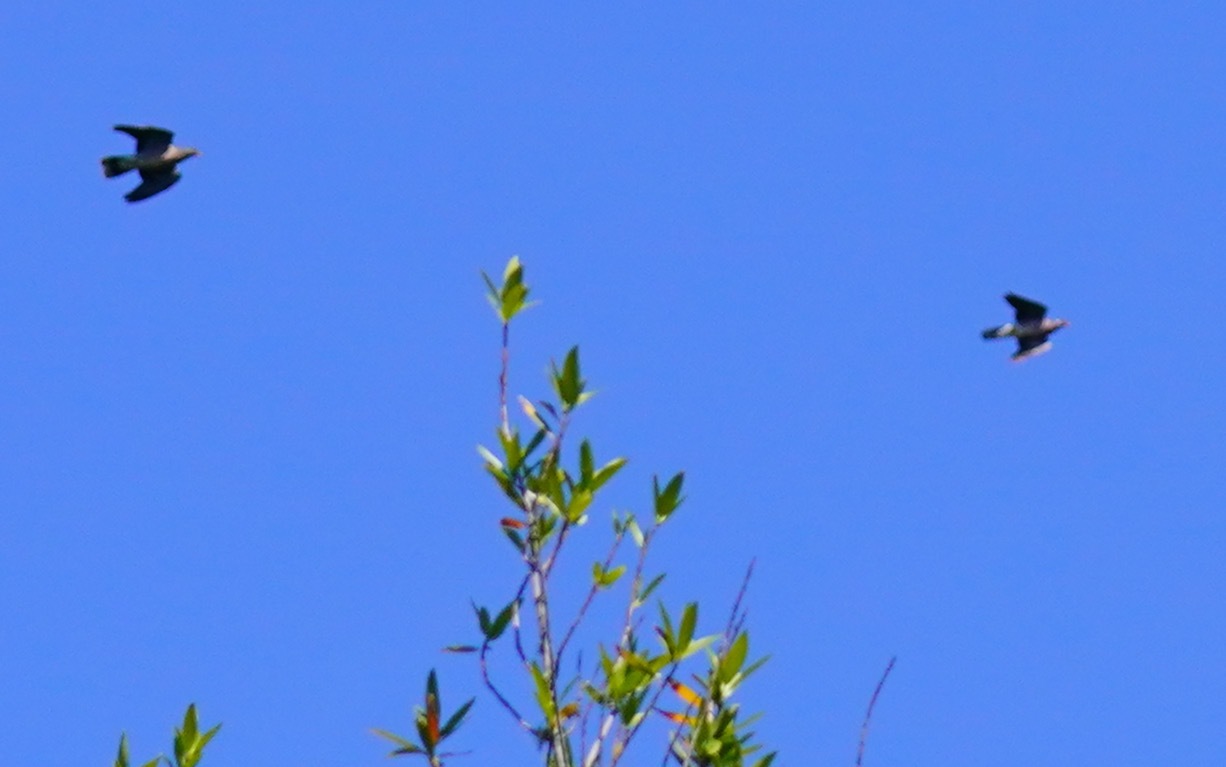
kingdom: Animalia
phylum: Chordata
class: Aves
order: Columbiformes
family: Columbidae
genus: Patagioenas
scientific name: Patagioenas fasciata
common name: Band-tailed pigeon
